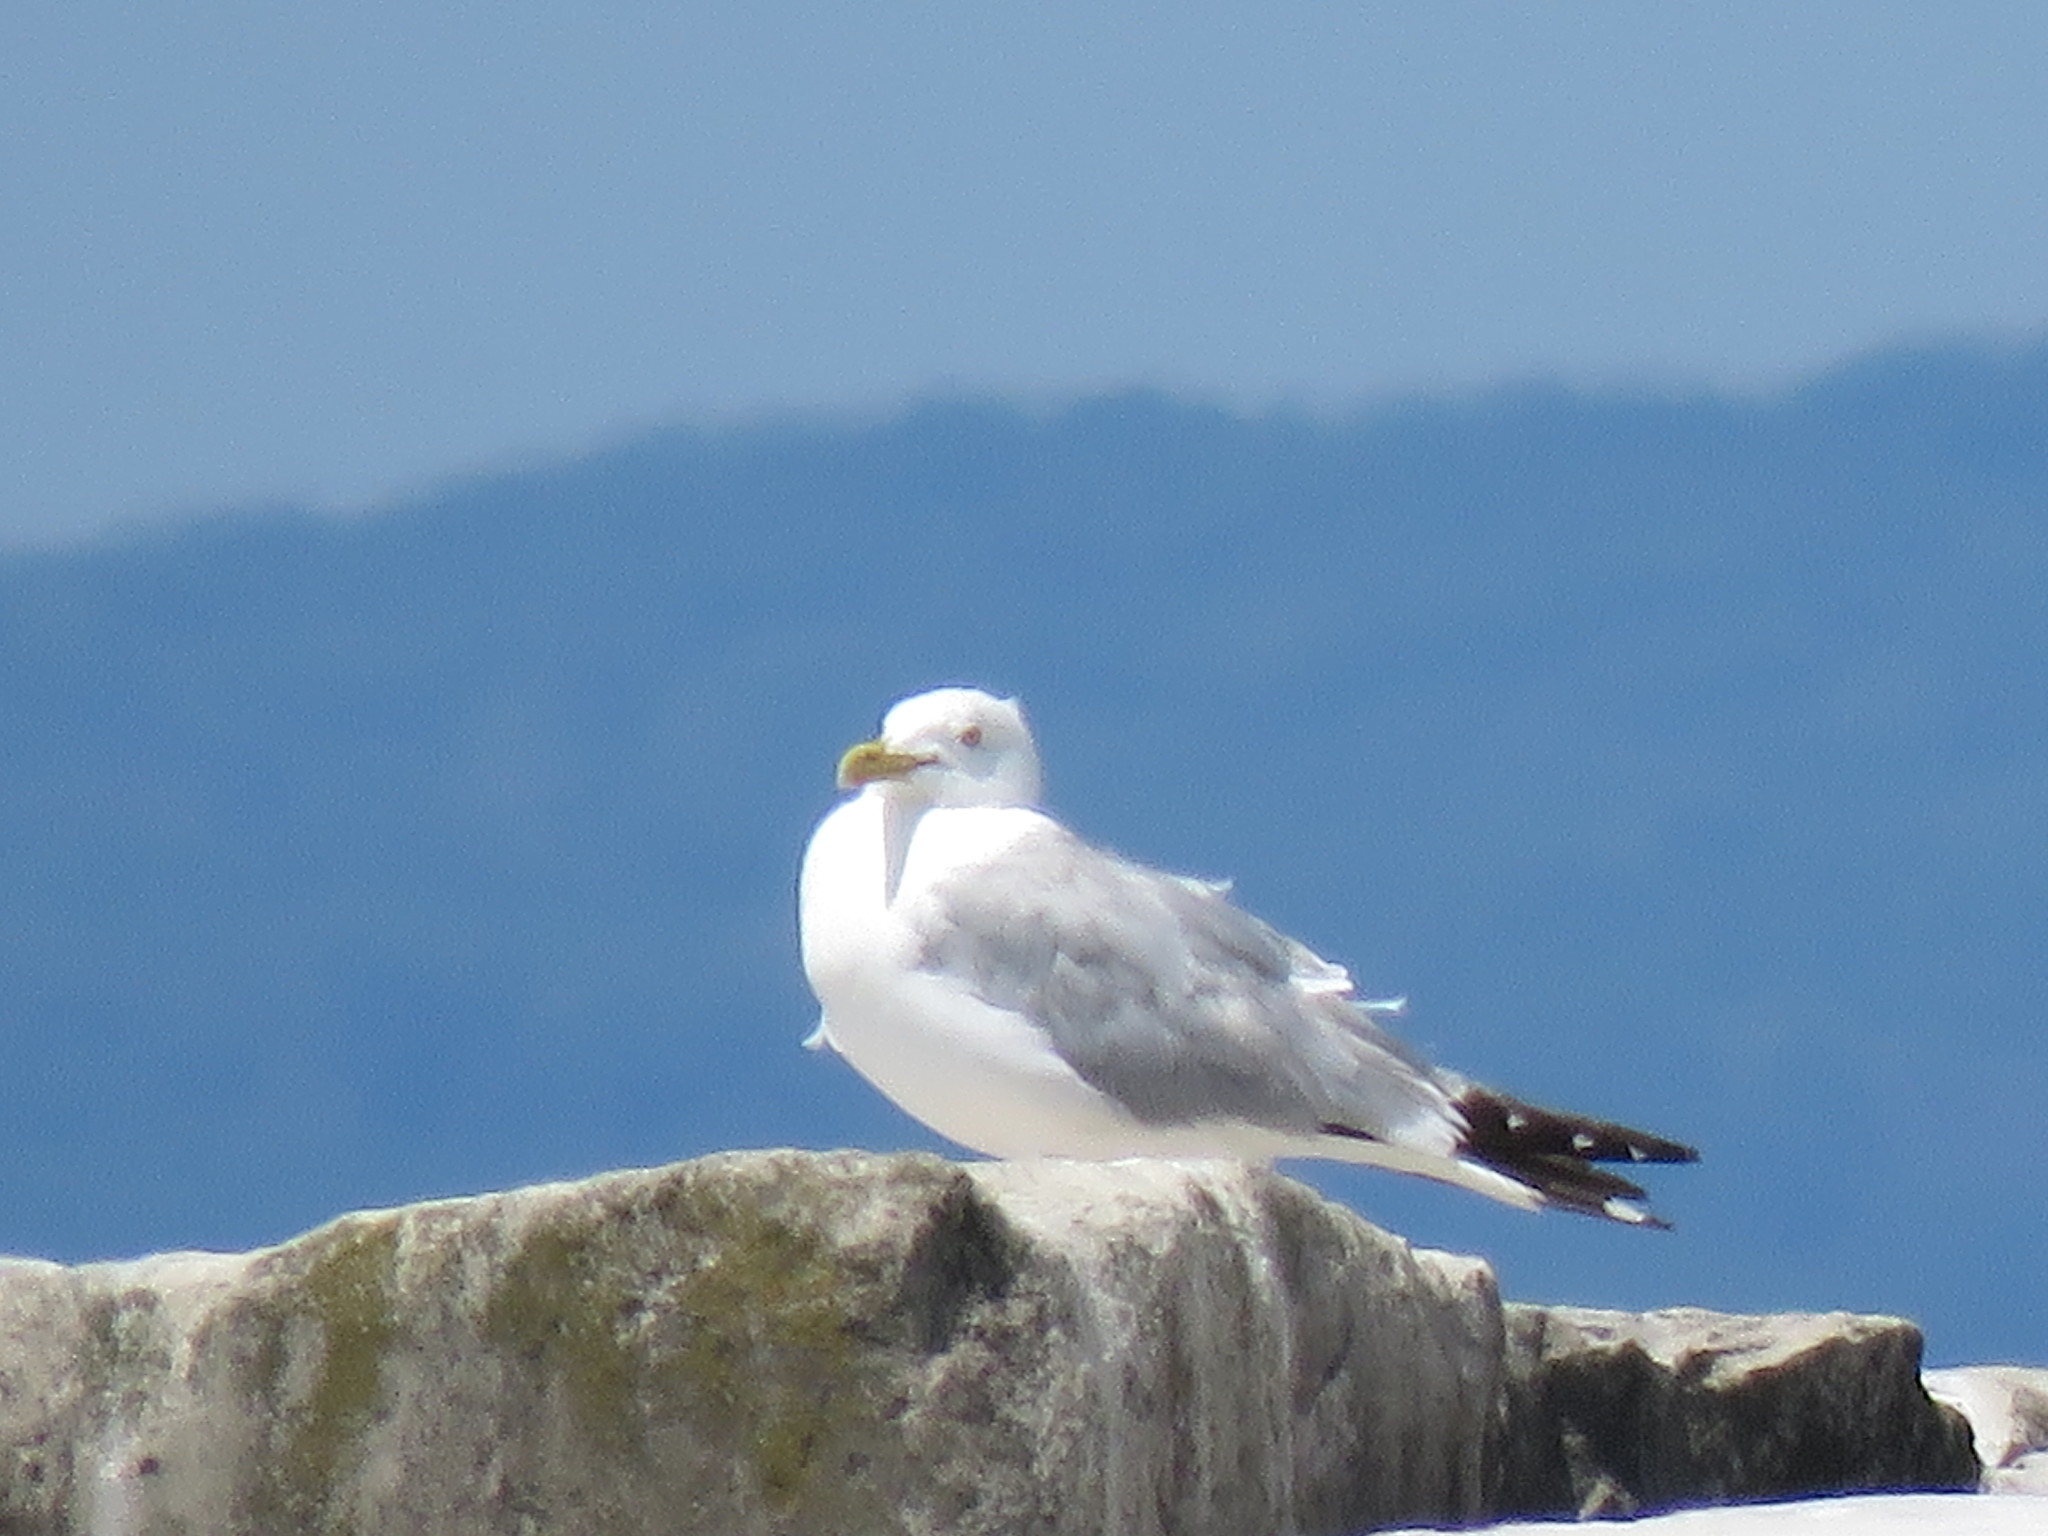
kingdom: Animalia
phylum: Chordata
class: Aves
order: Charadriiformes
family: Laridae
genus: Larus
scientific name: Larus argentatus
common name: Herring gull
